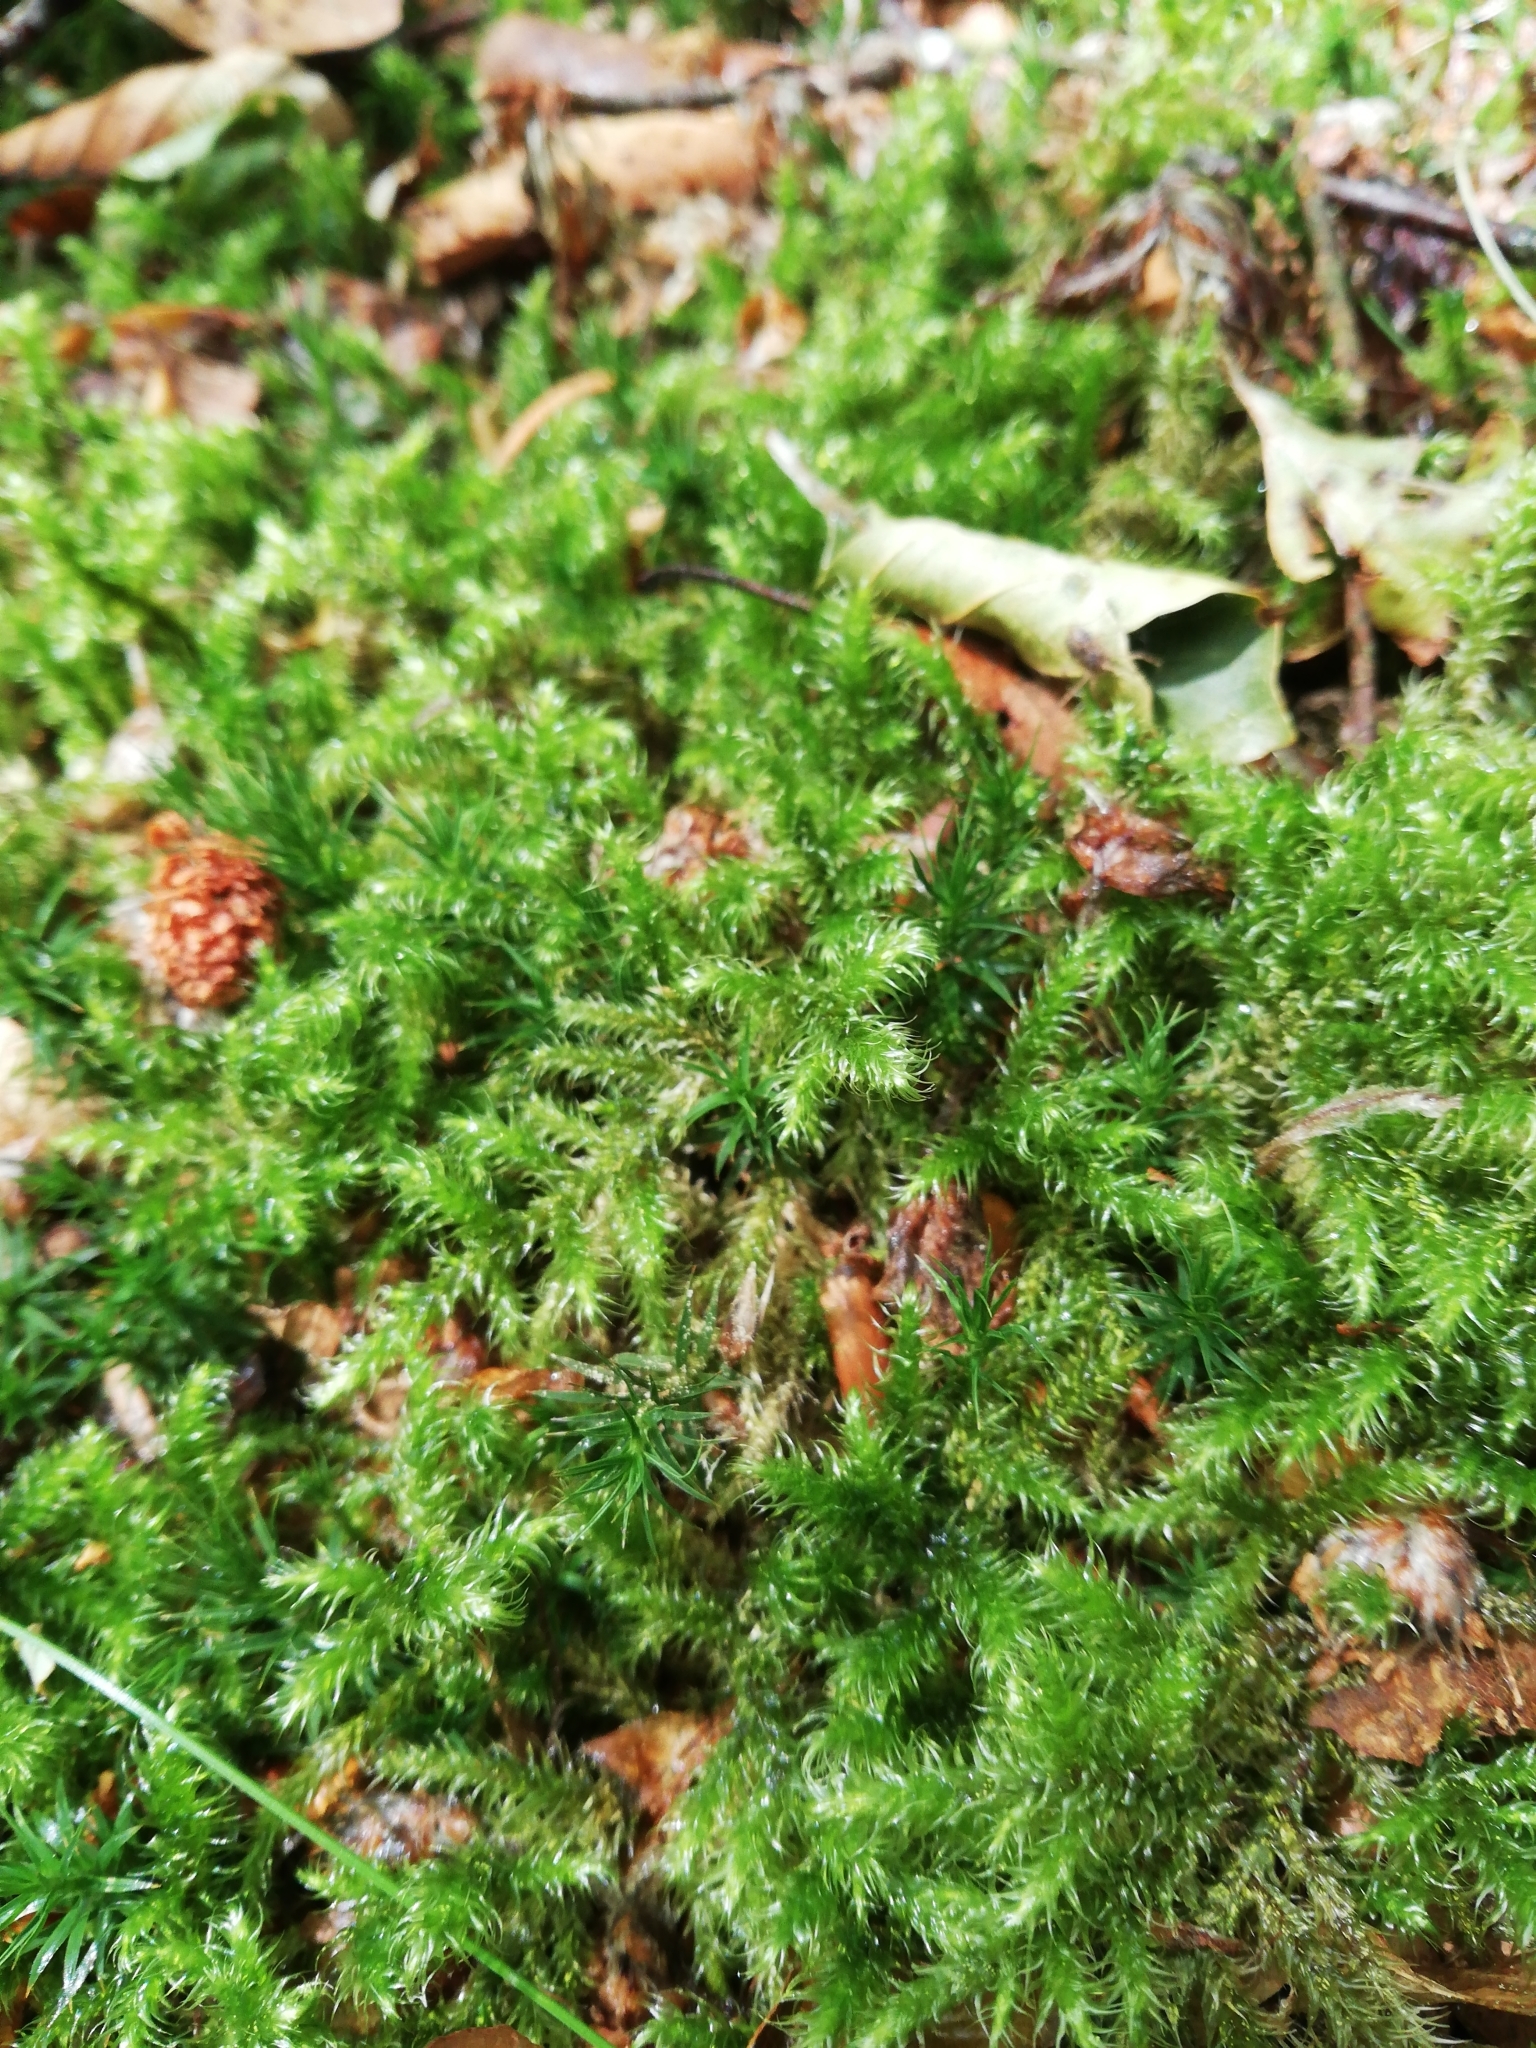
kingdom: Plantae
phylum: Bryophyta
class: Bryopsida
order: Hypnales
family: Hylocomiaceae
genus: Rhytidiadelphus
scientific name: Rhytidiadelphus loreus
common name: Lanky moss
